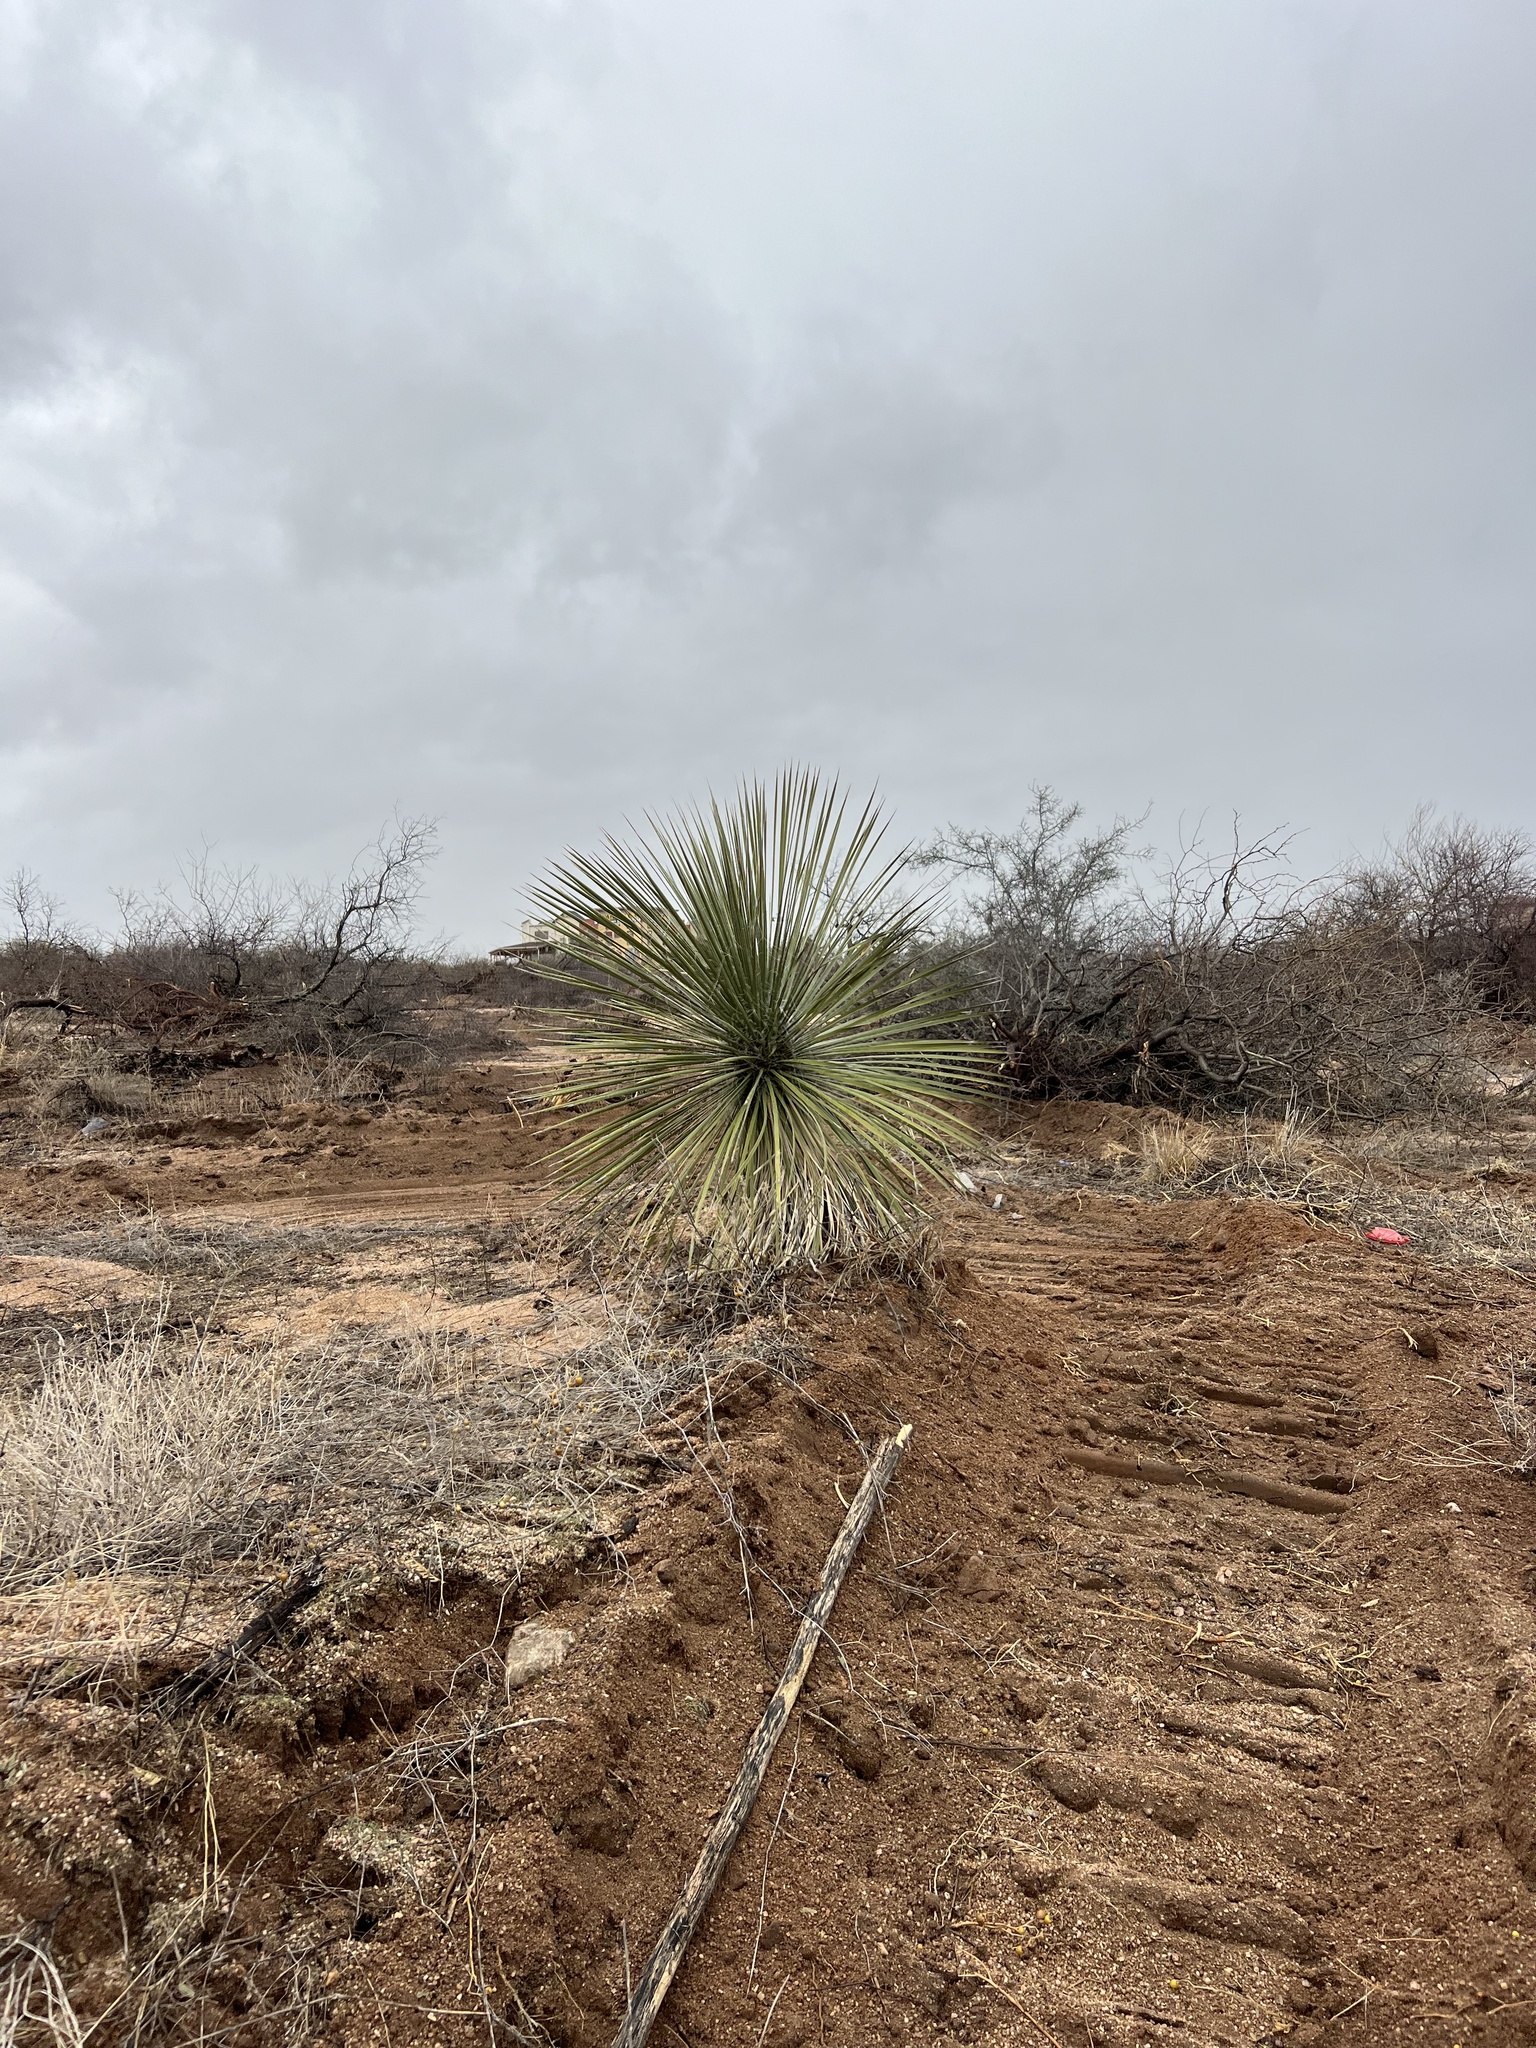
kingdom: Plantae
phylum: Tracheophyta
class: Liliopsida
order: Asparagales
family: Asparagaceae
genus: Yucca
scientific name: Yucca elata
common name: Palmella
